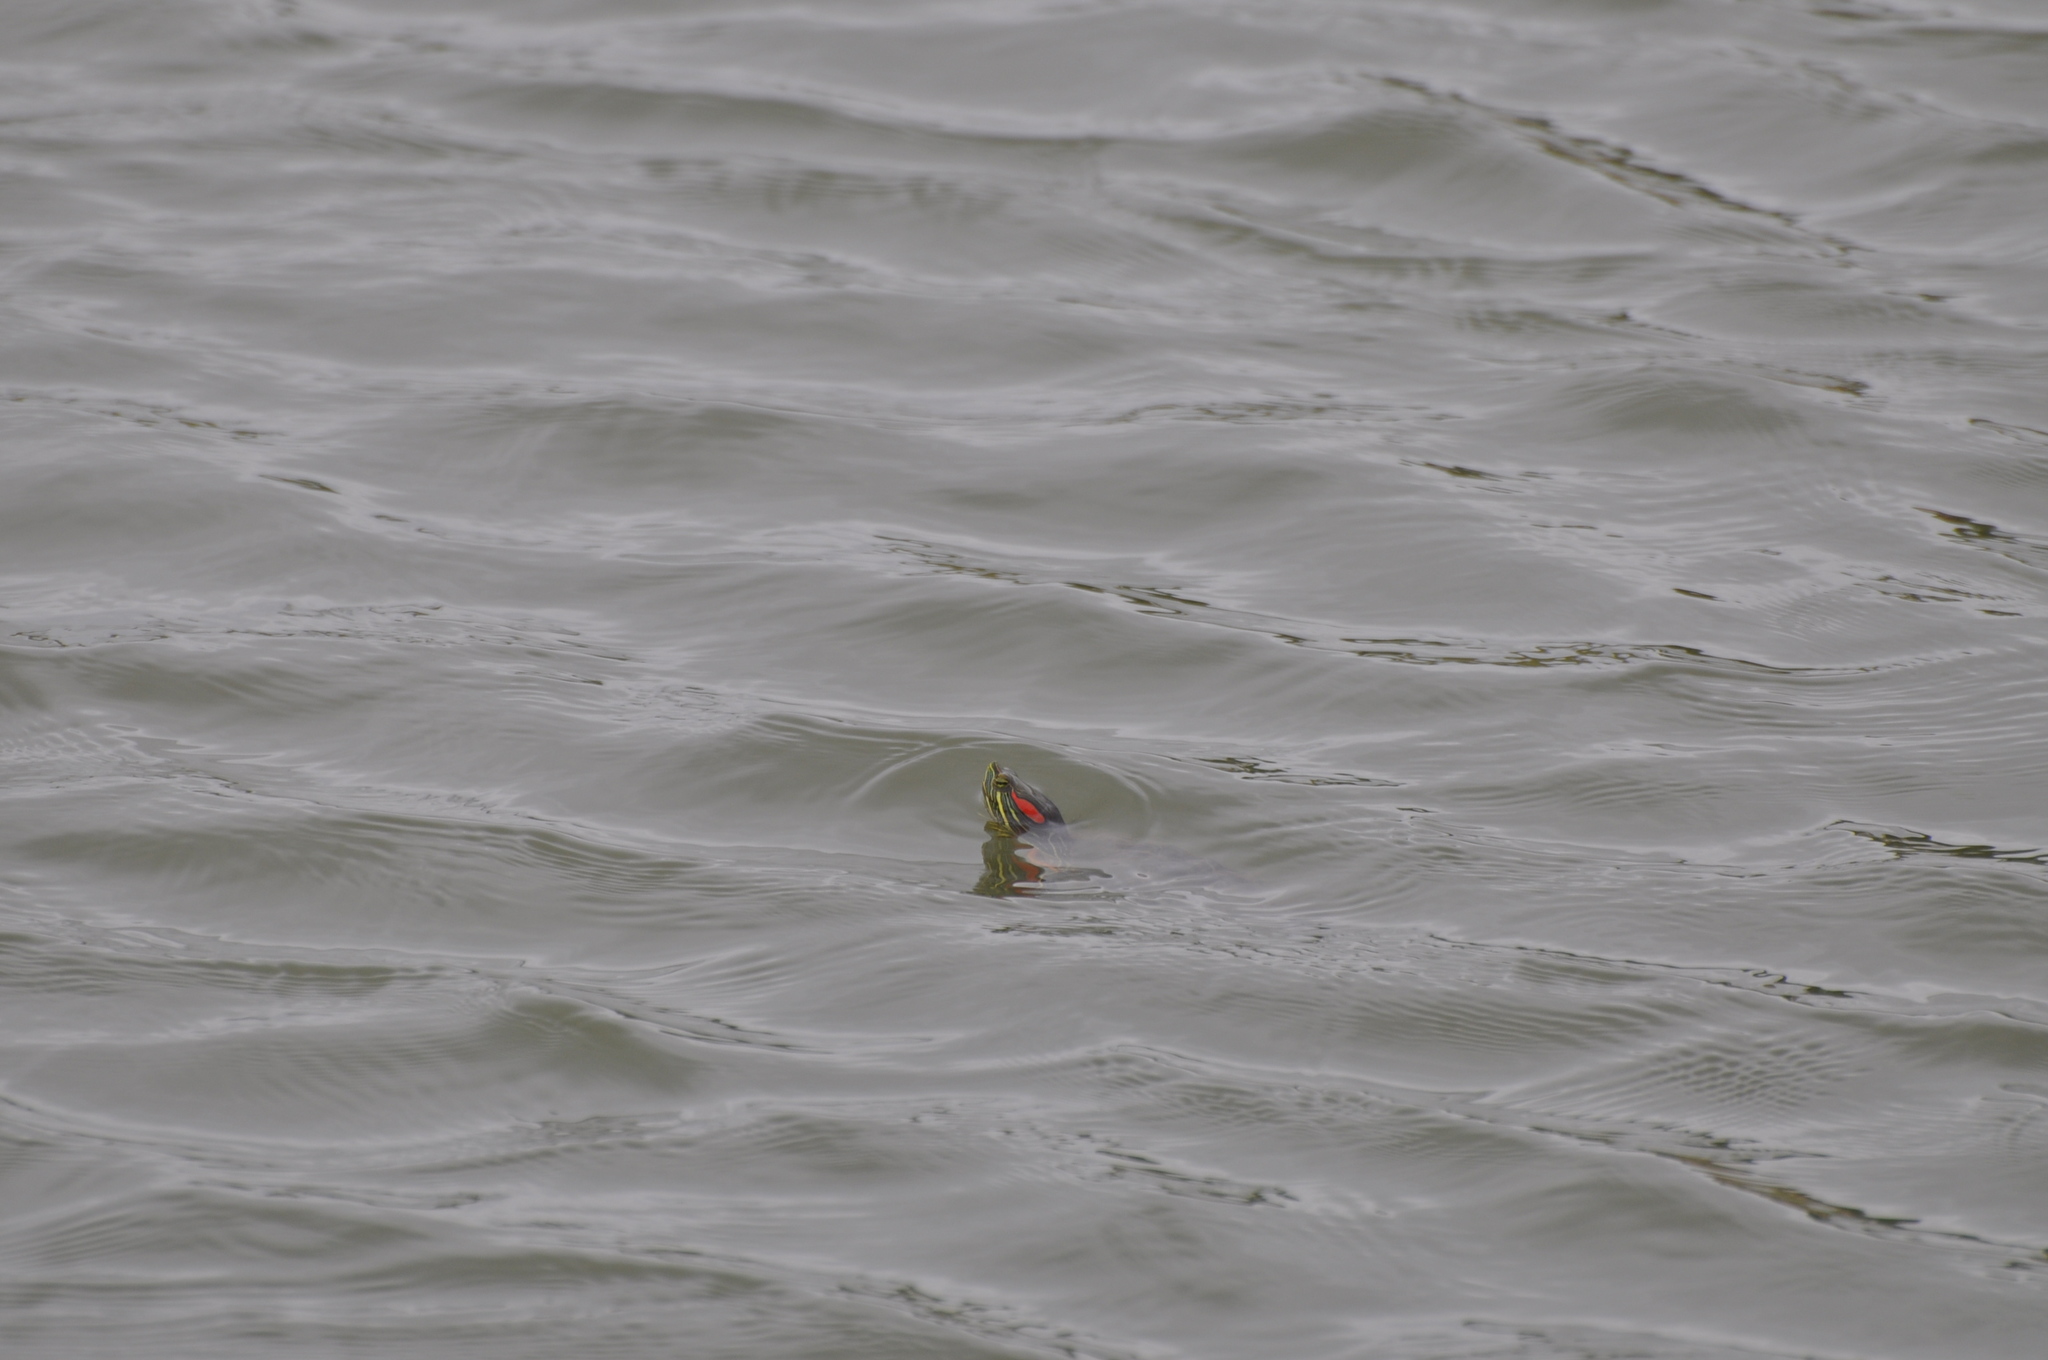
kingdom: Animalia
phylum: Chordata
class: Testudines
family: Emydidae
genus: Trachemys
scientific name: Trachemys scripta
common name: Slider
